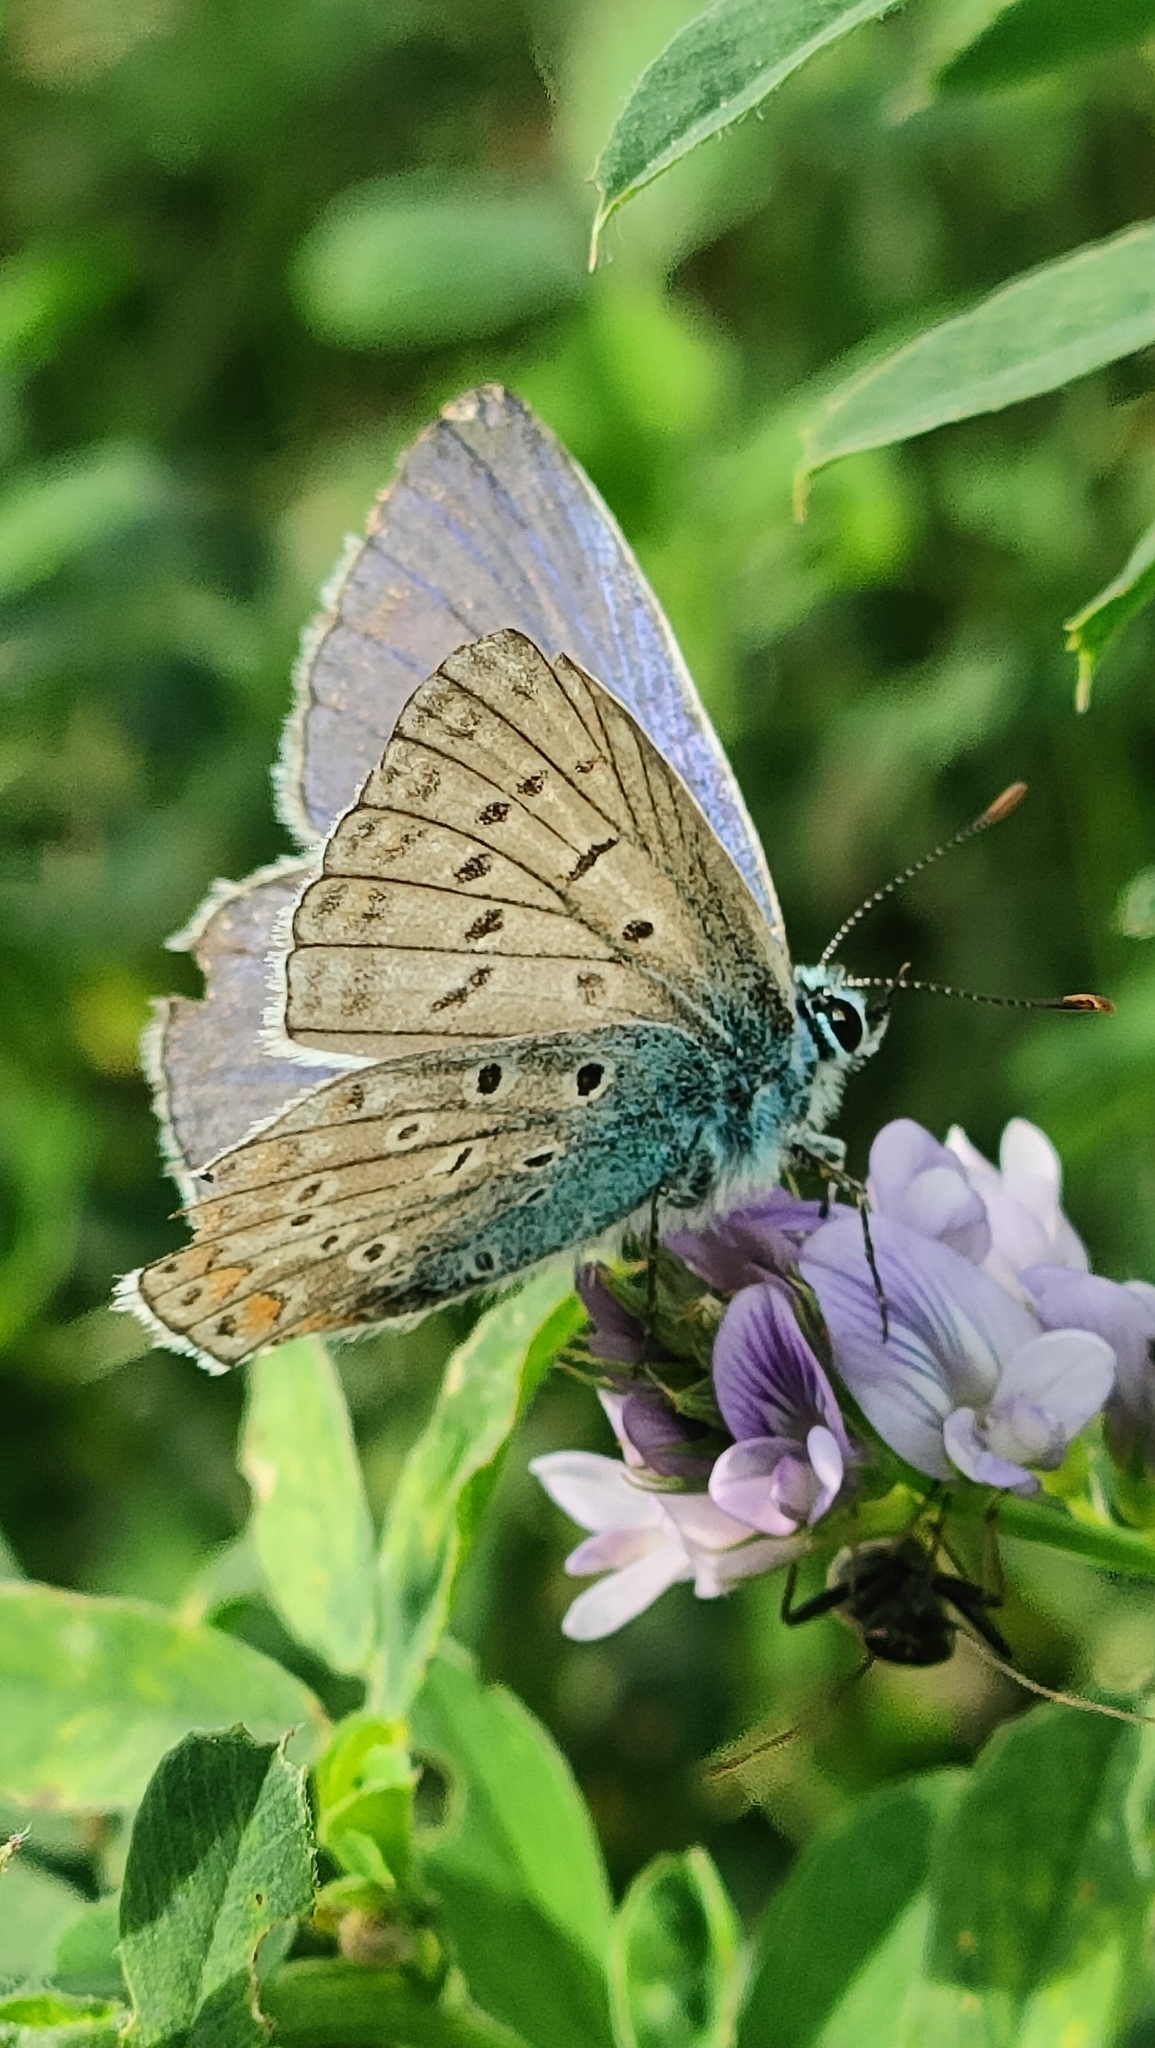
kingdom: Animalia
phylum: Arthropoda
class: Insecta
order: Lepidoptera
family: Lycaenidae
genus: Polyommatus
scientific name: Polyommatus icarus
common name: Common blue
